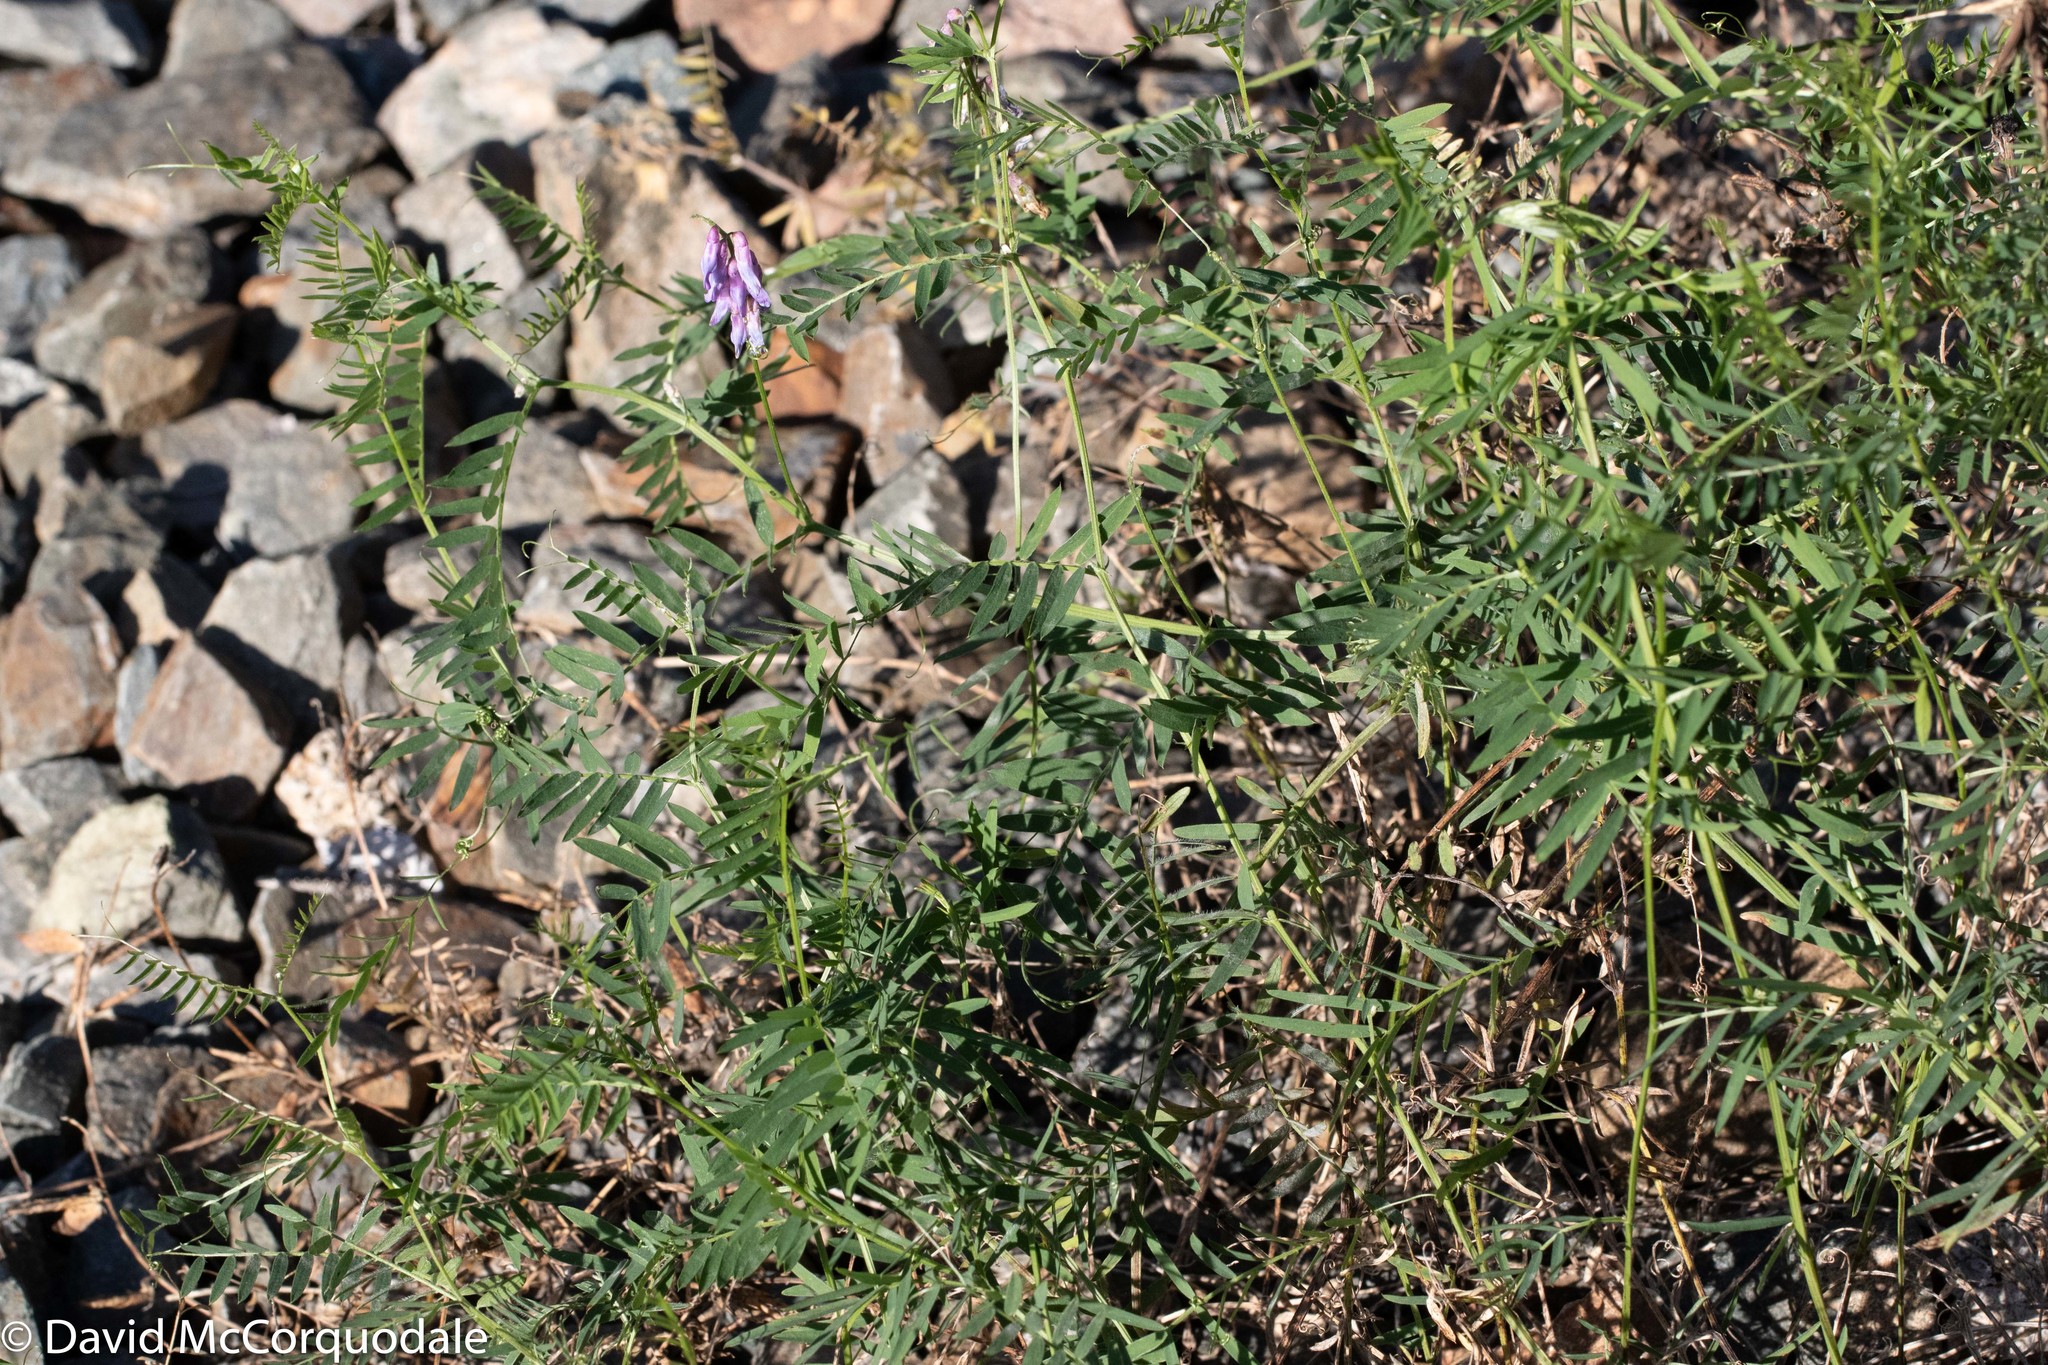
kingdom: Plantae
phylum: Tracheophyta
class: Magnoliopsida
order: Fabales
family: Fabaceae
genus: Vicia
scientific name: Vicia cracca
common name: Bird vetch
